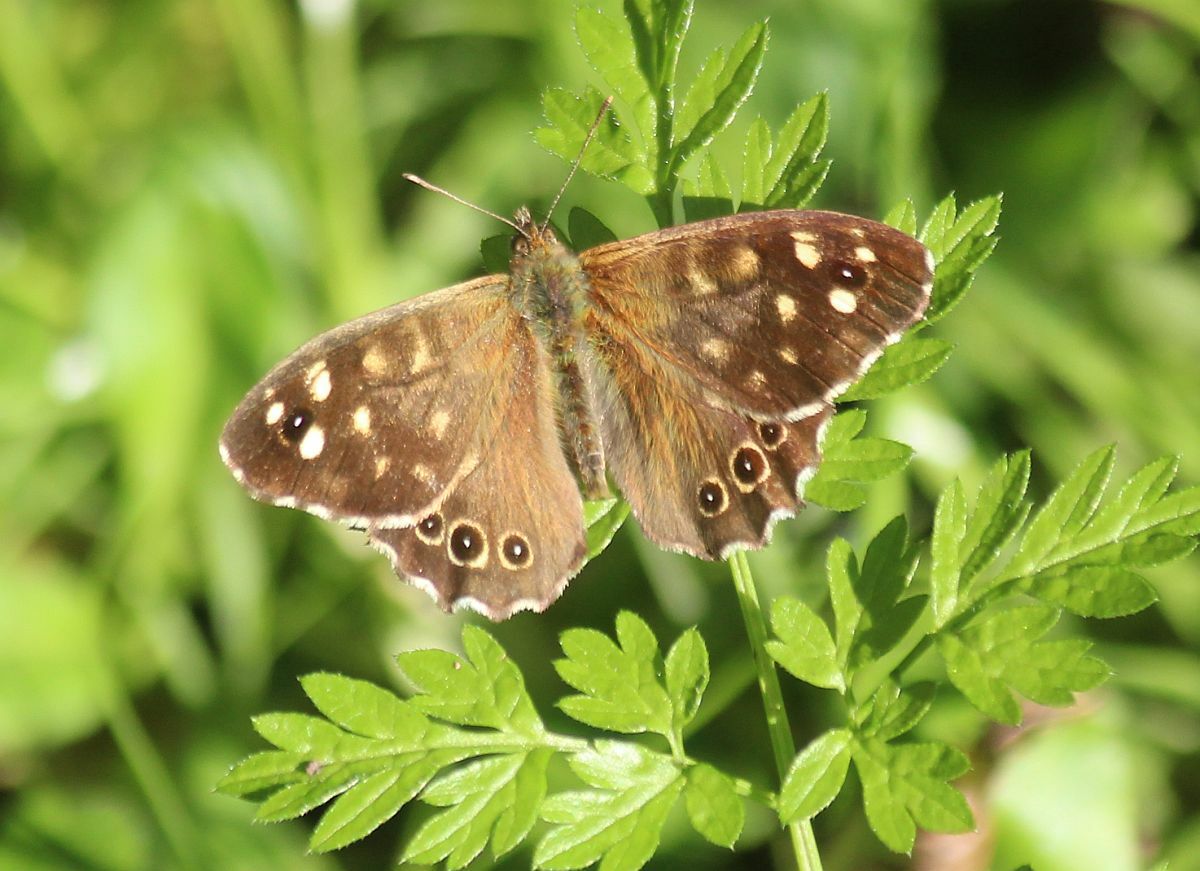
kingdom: Animalia
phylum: Arthropoda
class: Insecta
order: Lepidoptera
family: Nymphalidae
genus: Pararge
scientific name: Pararge aegeria
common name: Speckled wood
